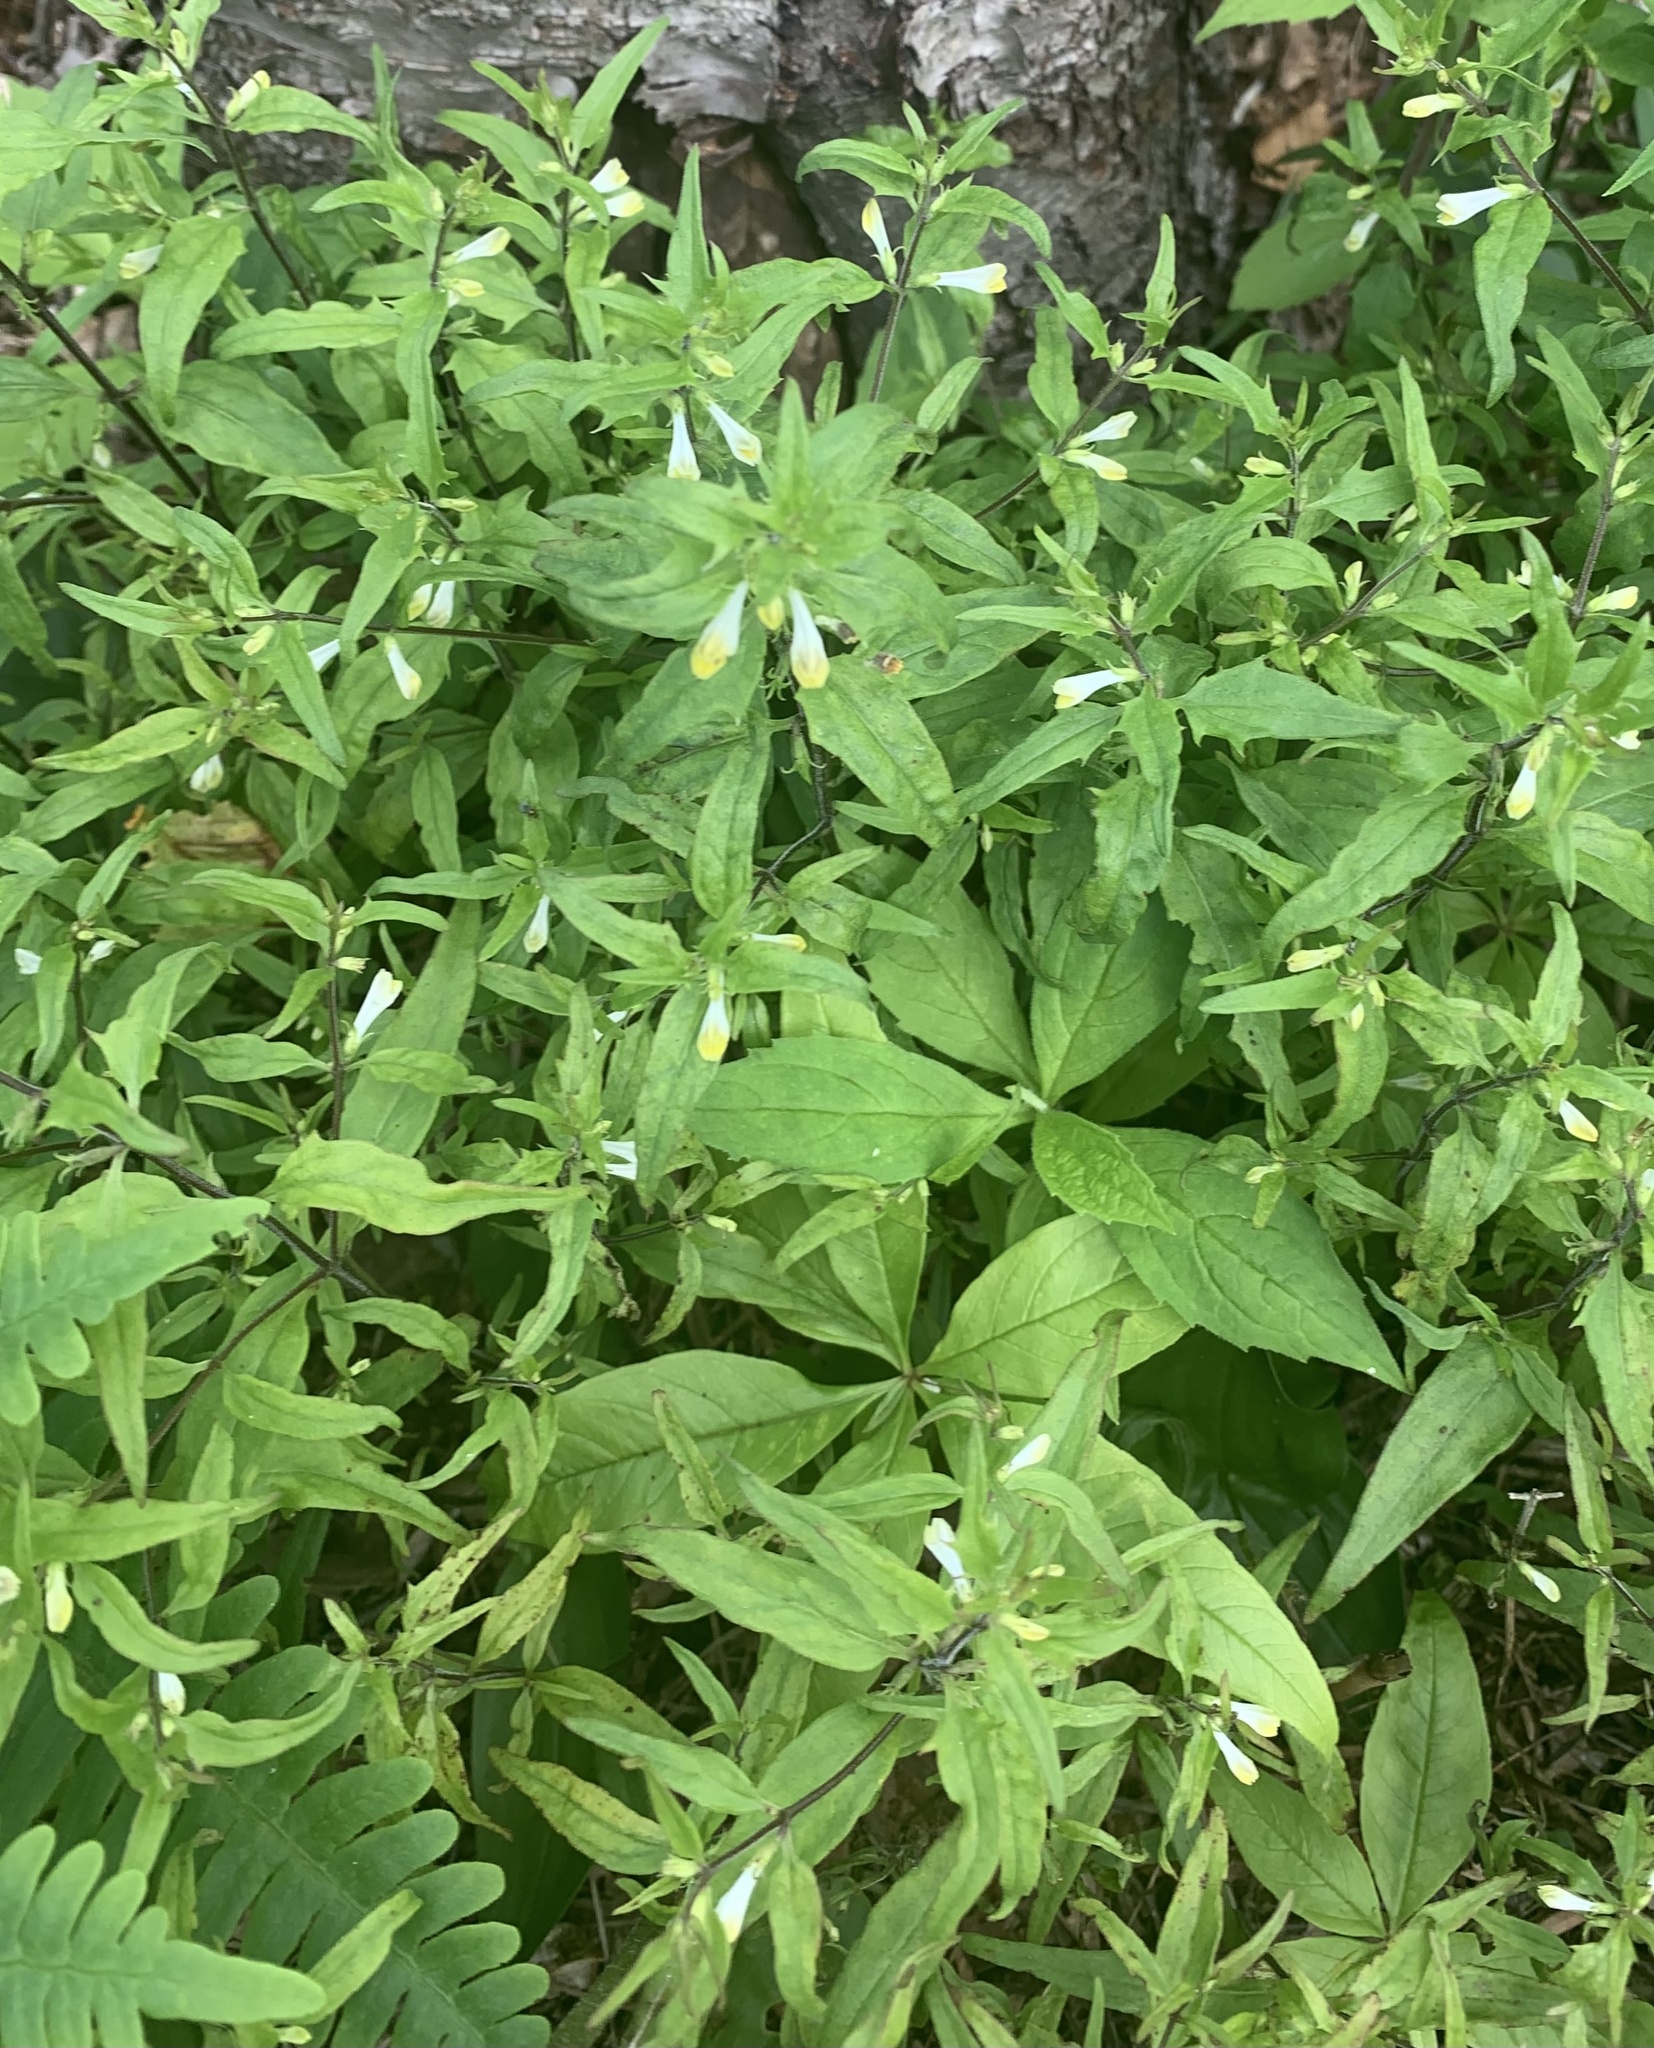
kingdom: Plantae
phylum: Tracheophyta
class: Magnoliopsida
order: Lamiales
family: Orobanchaceae
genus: Melampyrum
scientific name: Melampyrum lineare
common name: American cow-wheat
